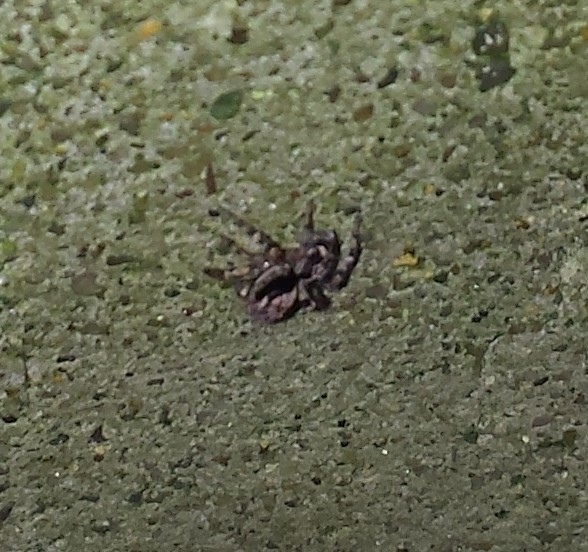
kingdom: Animalia
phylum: Arthropoda
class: Arachnida
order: Araneae
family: Salticidae
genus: Naphrys
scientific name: Naphrys pulex
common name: Flea jumping spider
